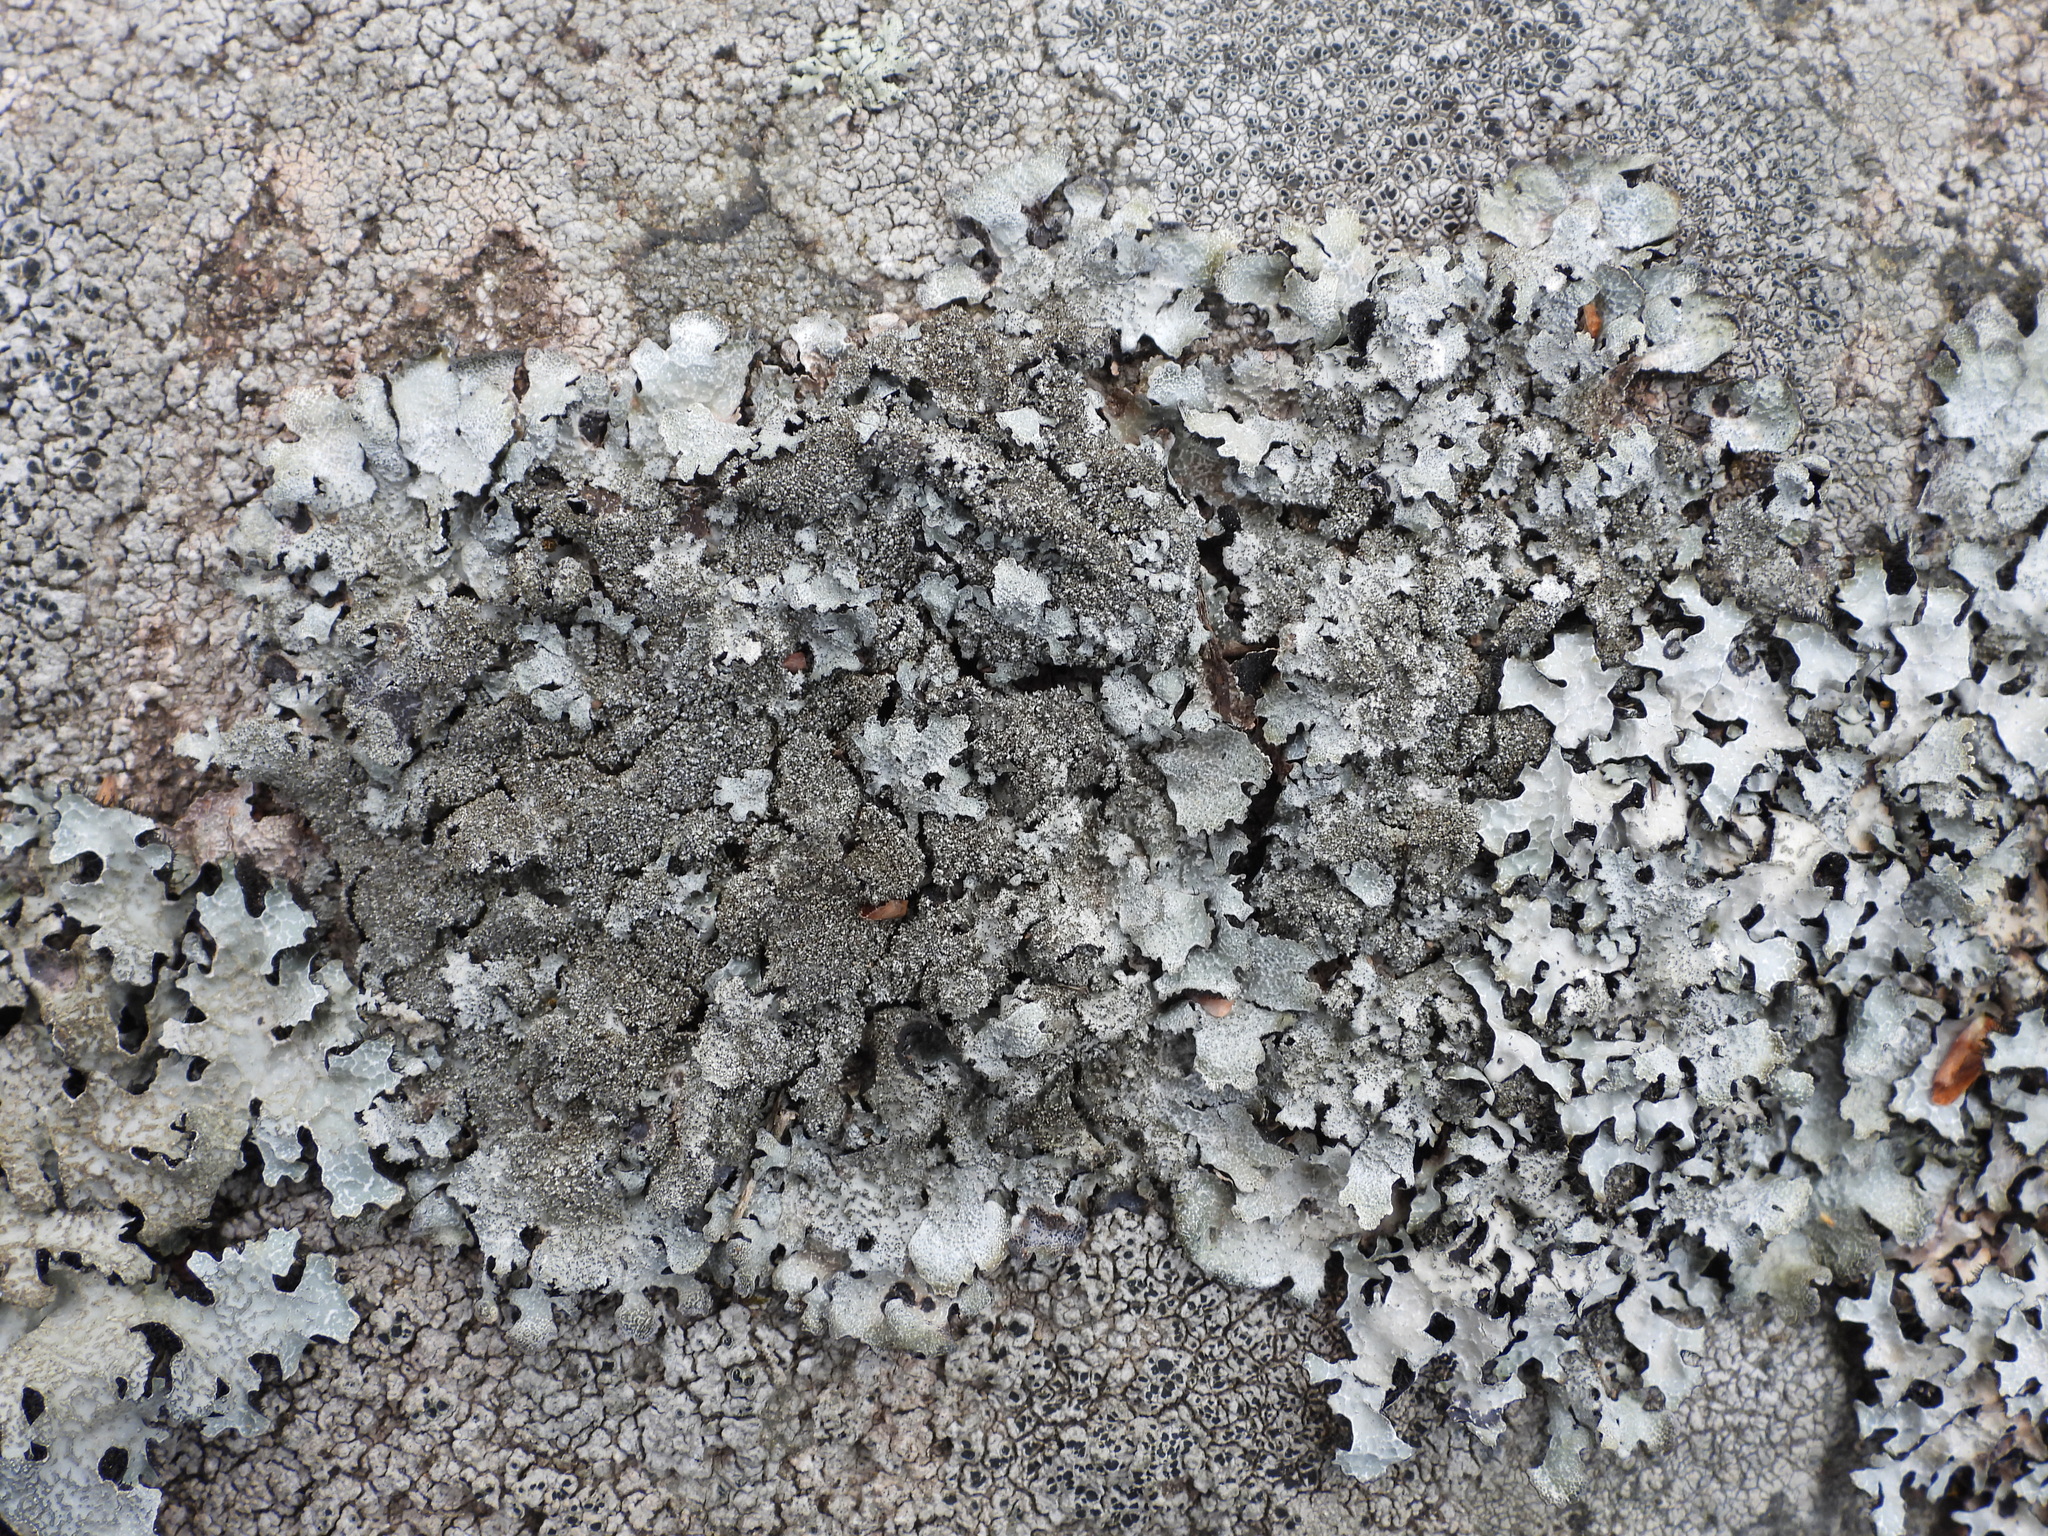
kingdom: Fungi
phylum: Ascomycota
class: Lecanoromycetes
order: Lecanorales
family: Parmeliaceae
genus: Parmelia
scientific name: Parmelia saxatilis
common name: Salted shield lichen
